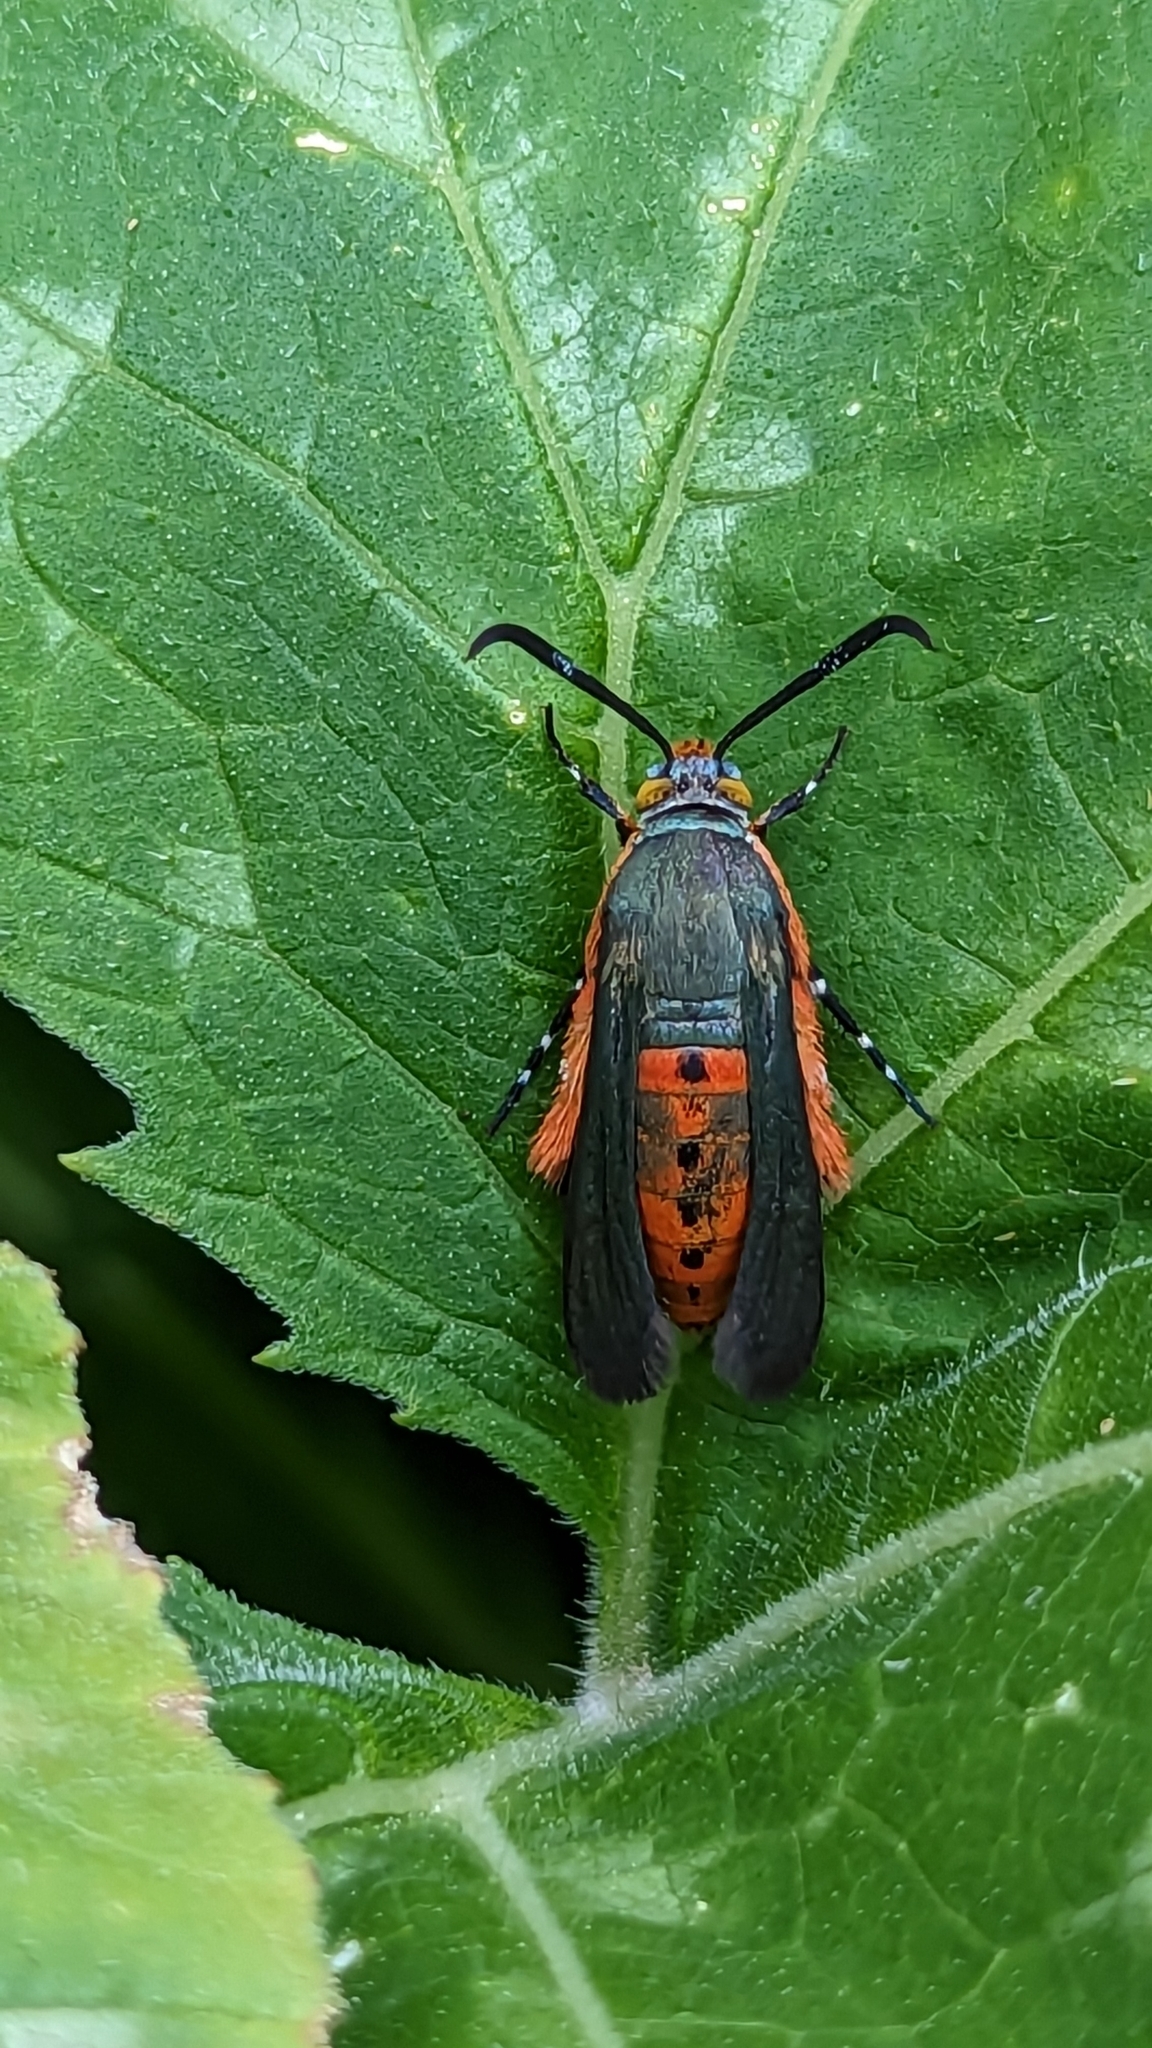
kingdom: Animalia
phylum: Arthropoda
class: Insecta
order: Lepidoptera
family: Sesiidae
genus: Eichlinia
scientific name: Eichlinia calabaza
